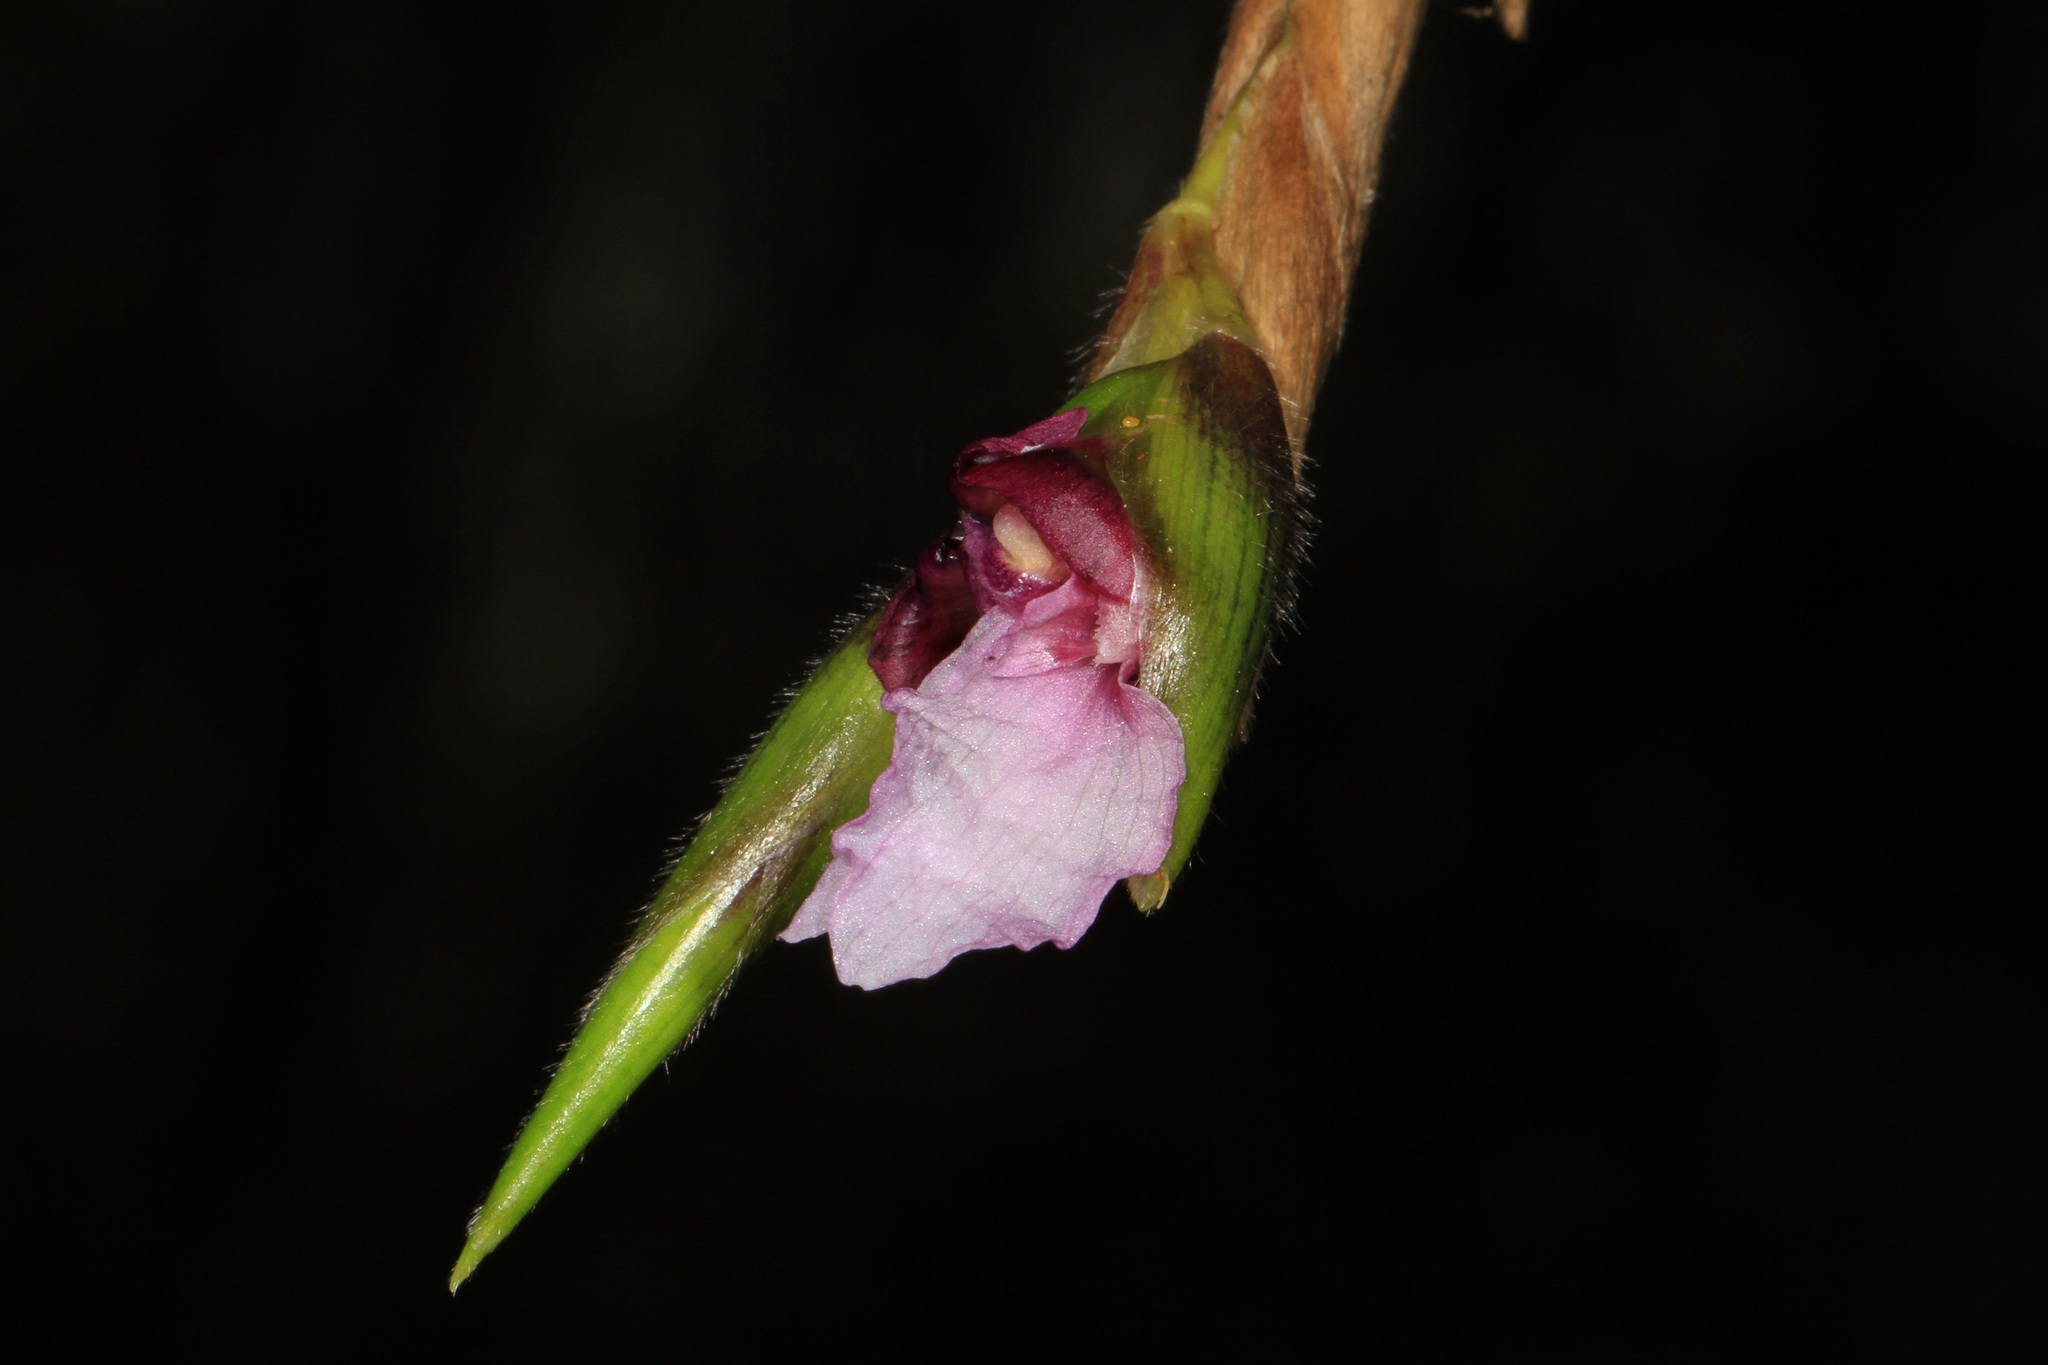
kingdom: Plantae
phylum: Tracheophyta
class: Liliopsida
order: Zingiberales
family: Marantaceae
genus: Thalia
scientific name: Thalia geniculata
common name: Arrowroot
